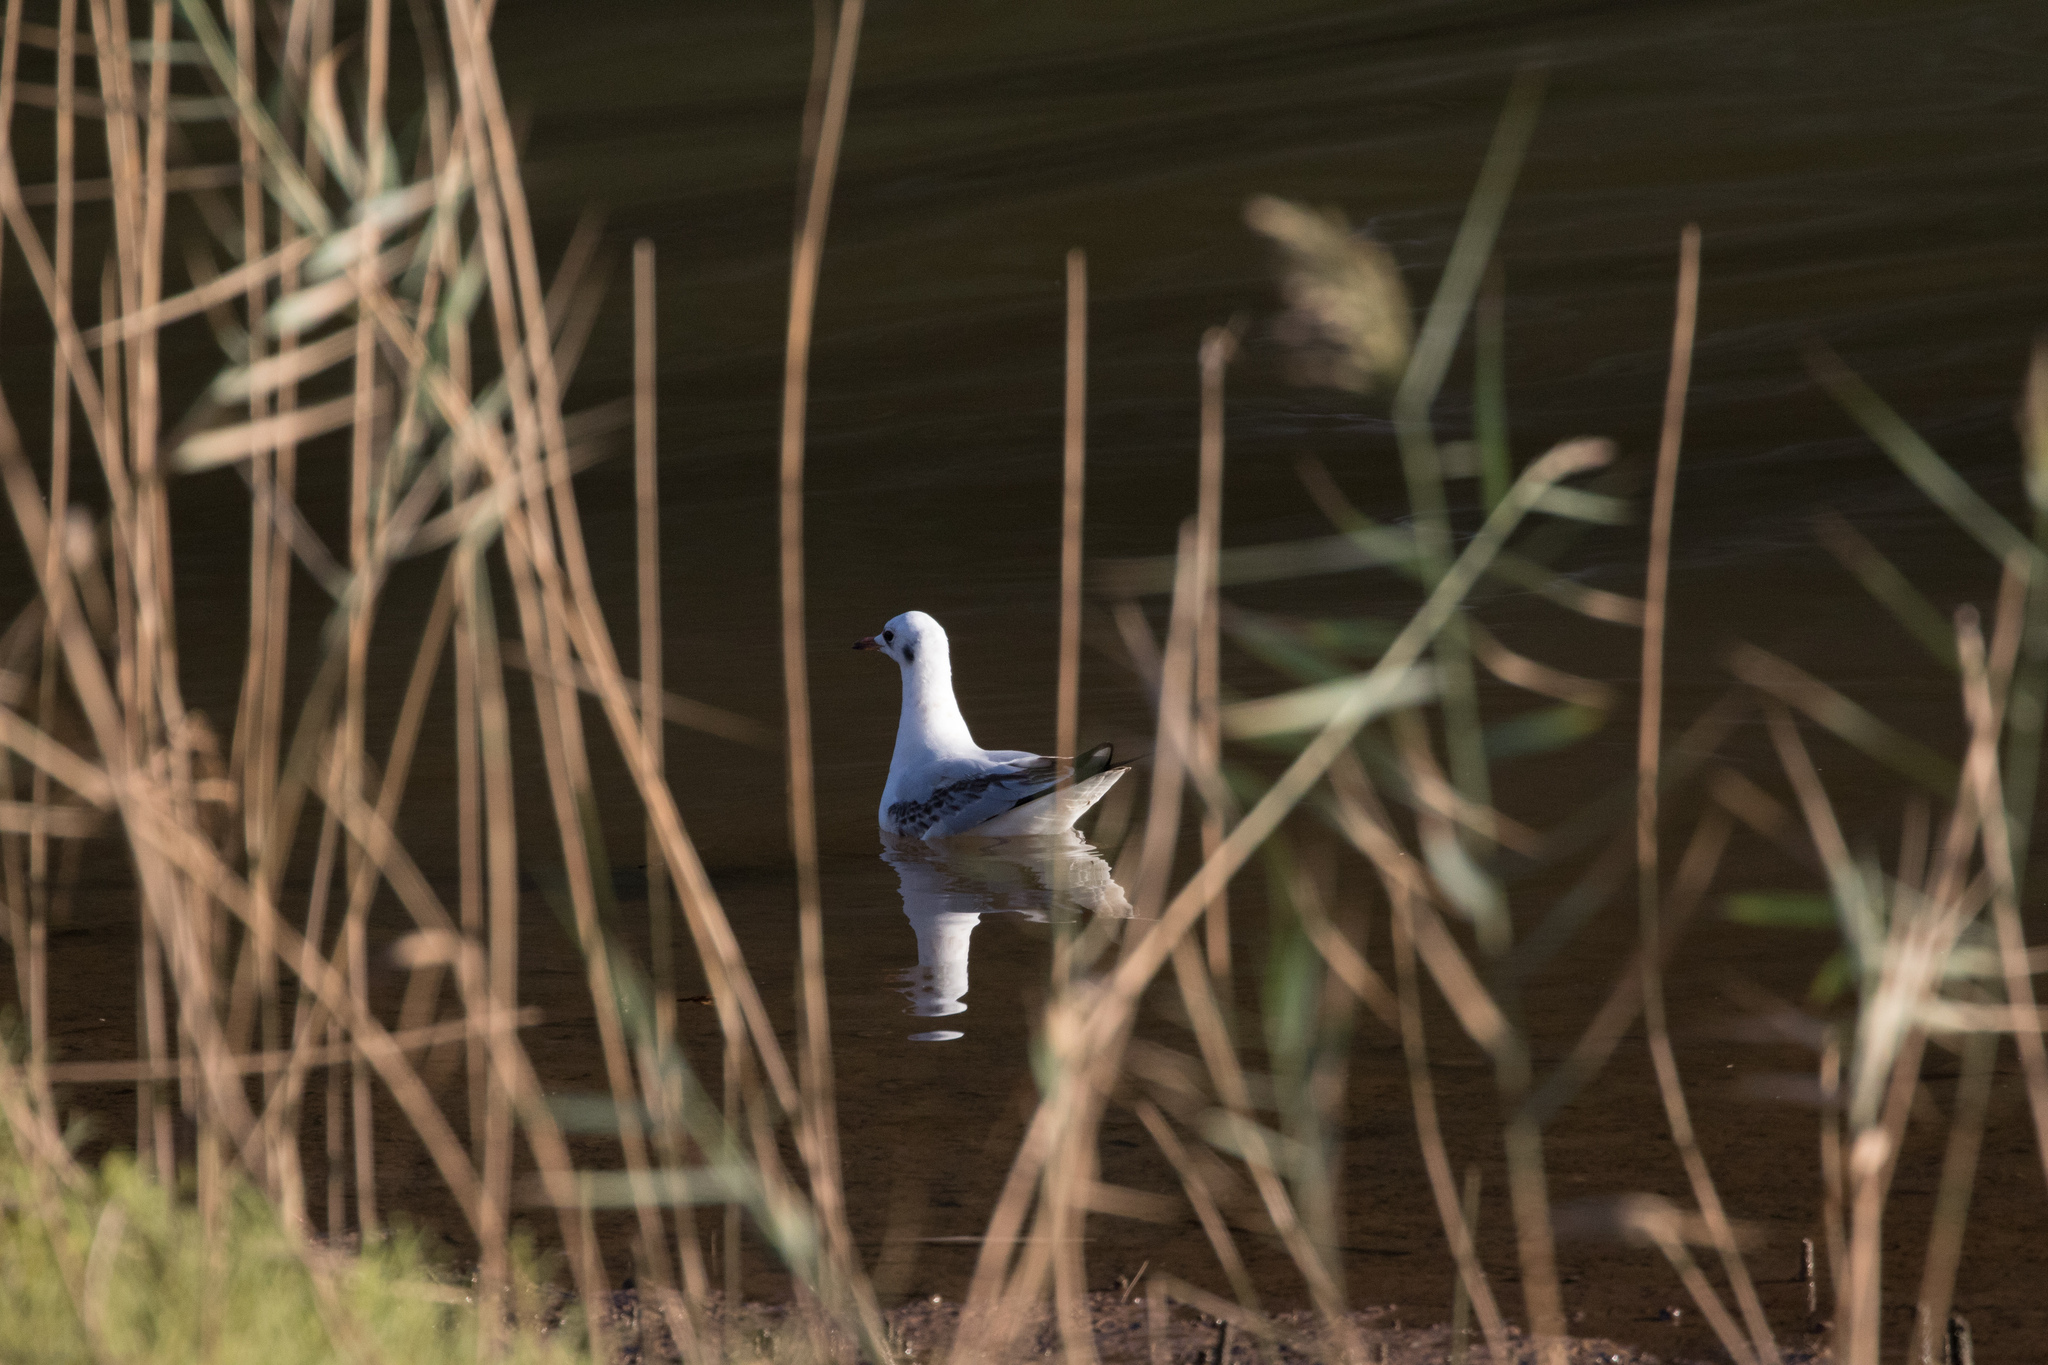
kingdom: Animalia
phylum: Chordata
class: Aves
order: Charadriiformes
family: Laridae
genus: Chroicocephalus
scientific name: Chroicocephalus ridibundus
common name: Black-headed gull
